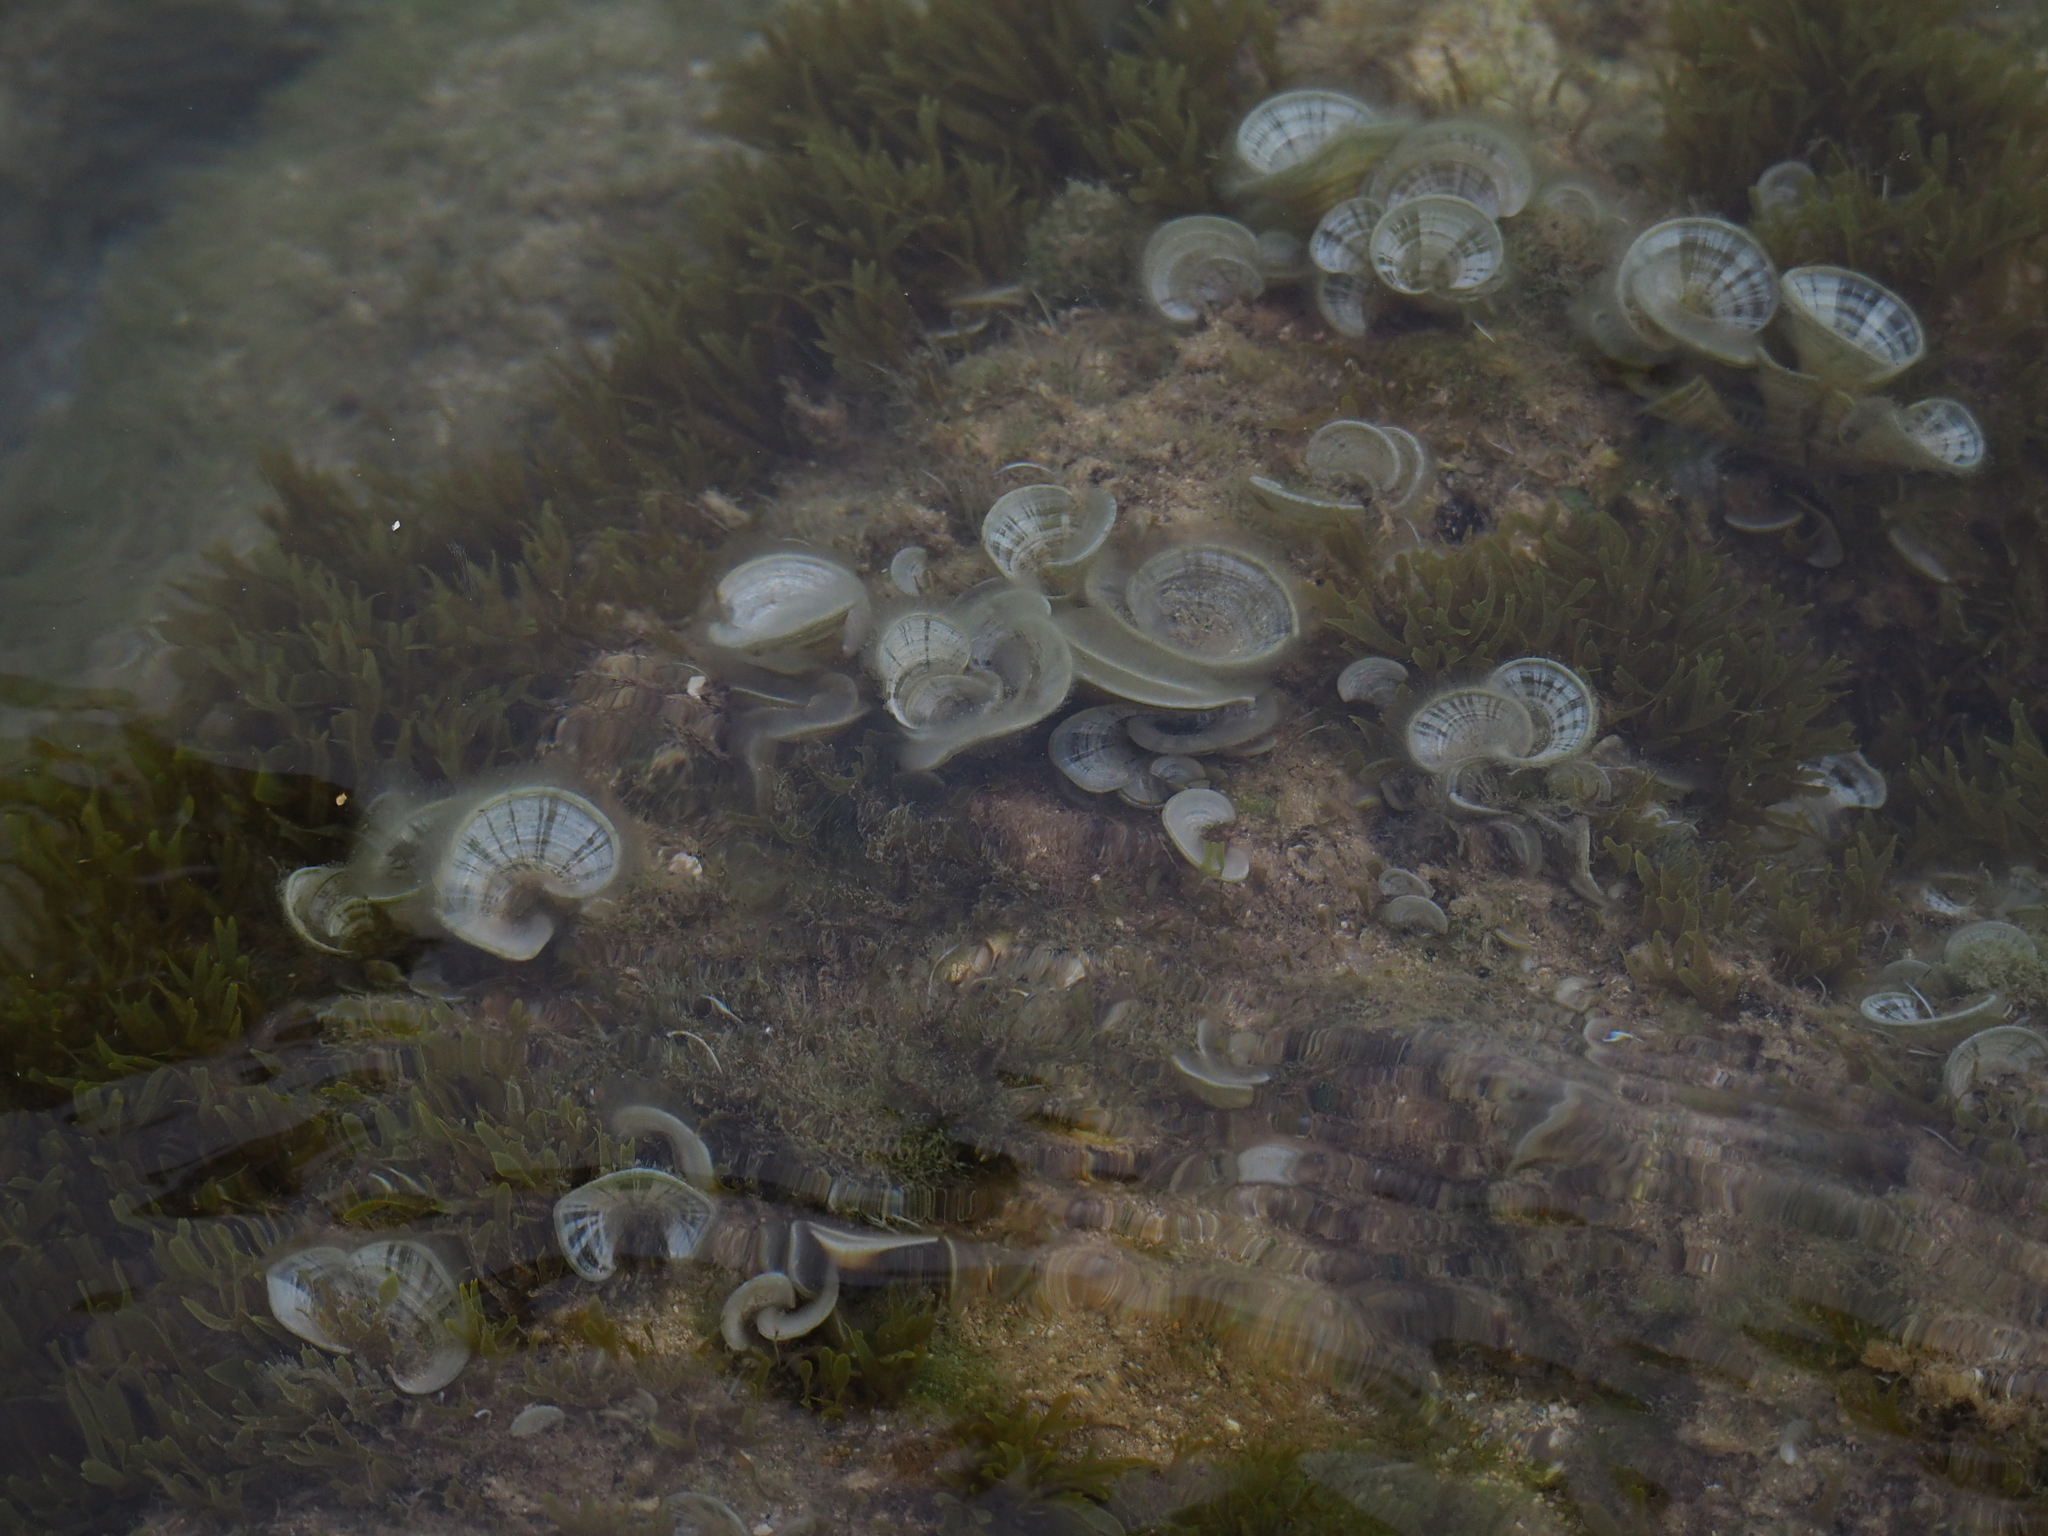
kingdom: Chromista
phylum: Ochrophyta
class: Phaeophyceae
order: Dictyotales
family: Dictyotaceae
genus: Padina
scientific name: Padina
